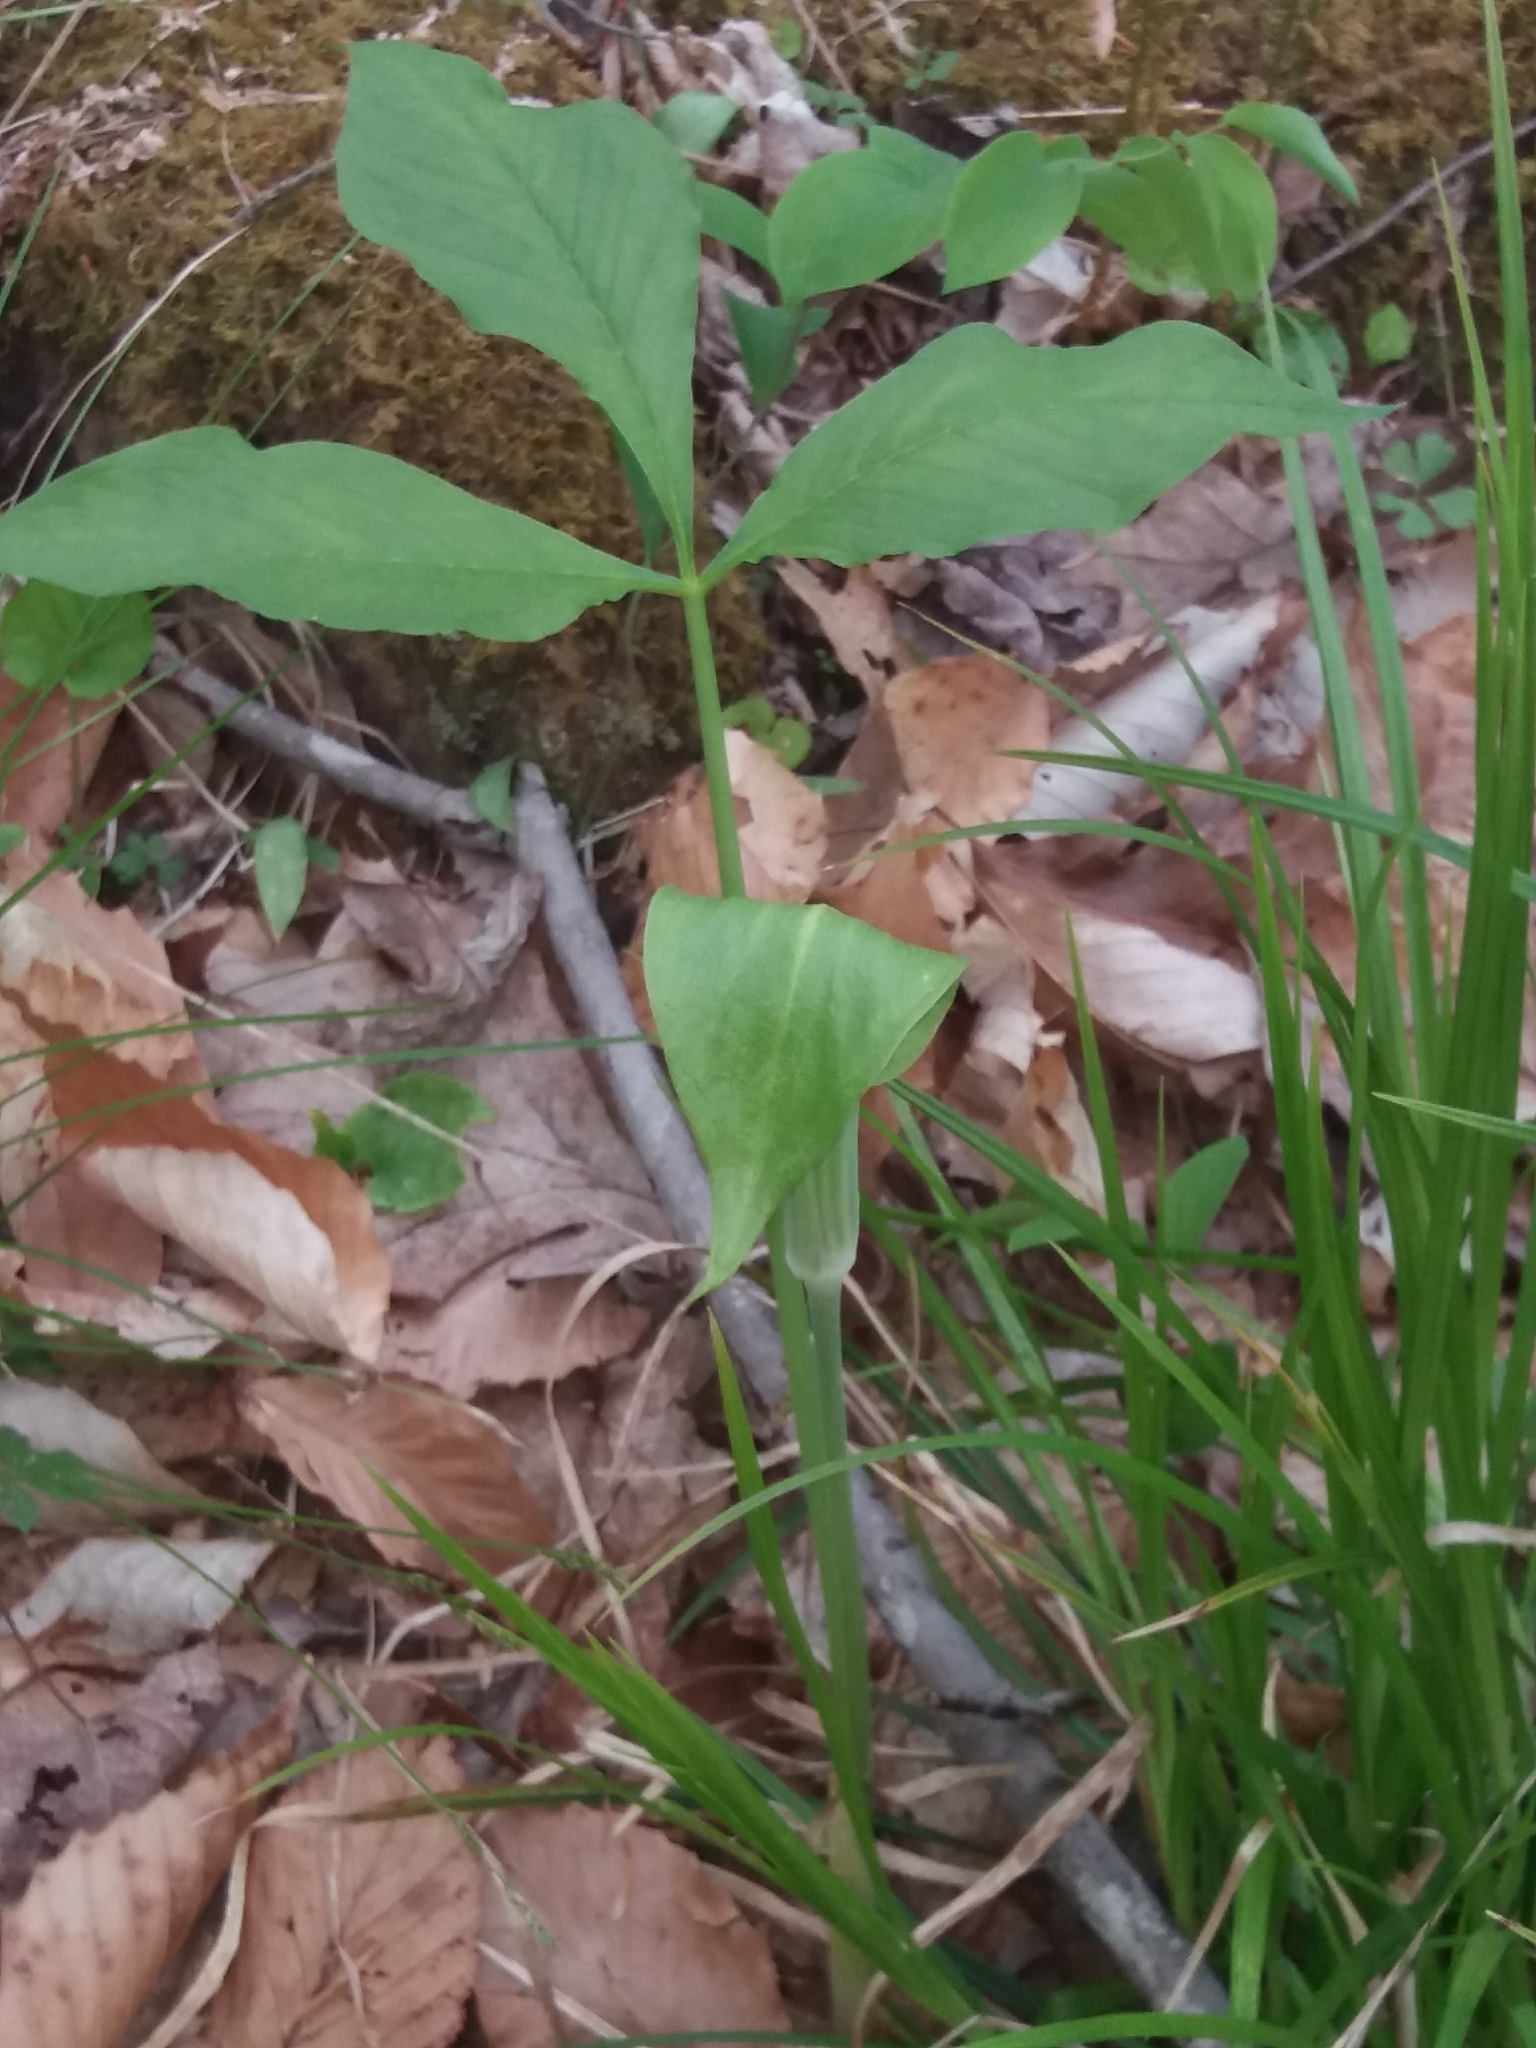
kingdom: Plantae
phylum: Tracheophyta
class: Liliopsida
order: Alismatales
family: Araceae
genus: Arisaema
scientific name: Arisaema triphyllum
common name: Jack-in-the-pulpit
